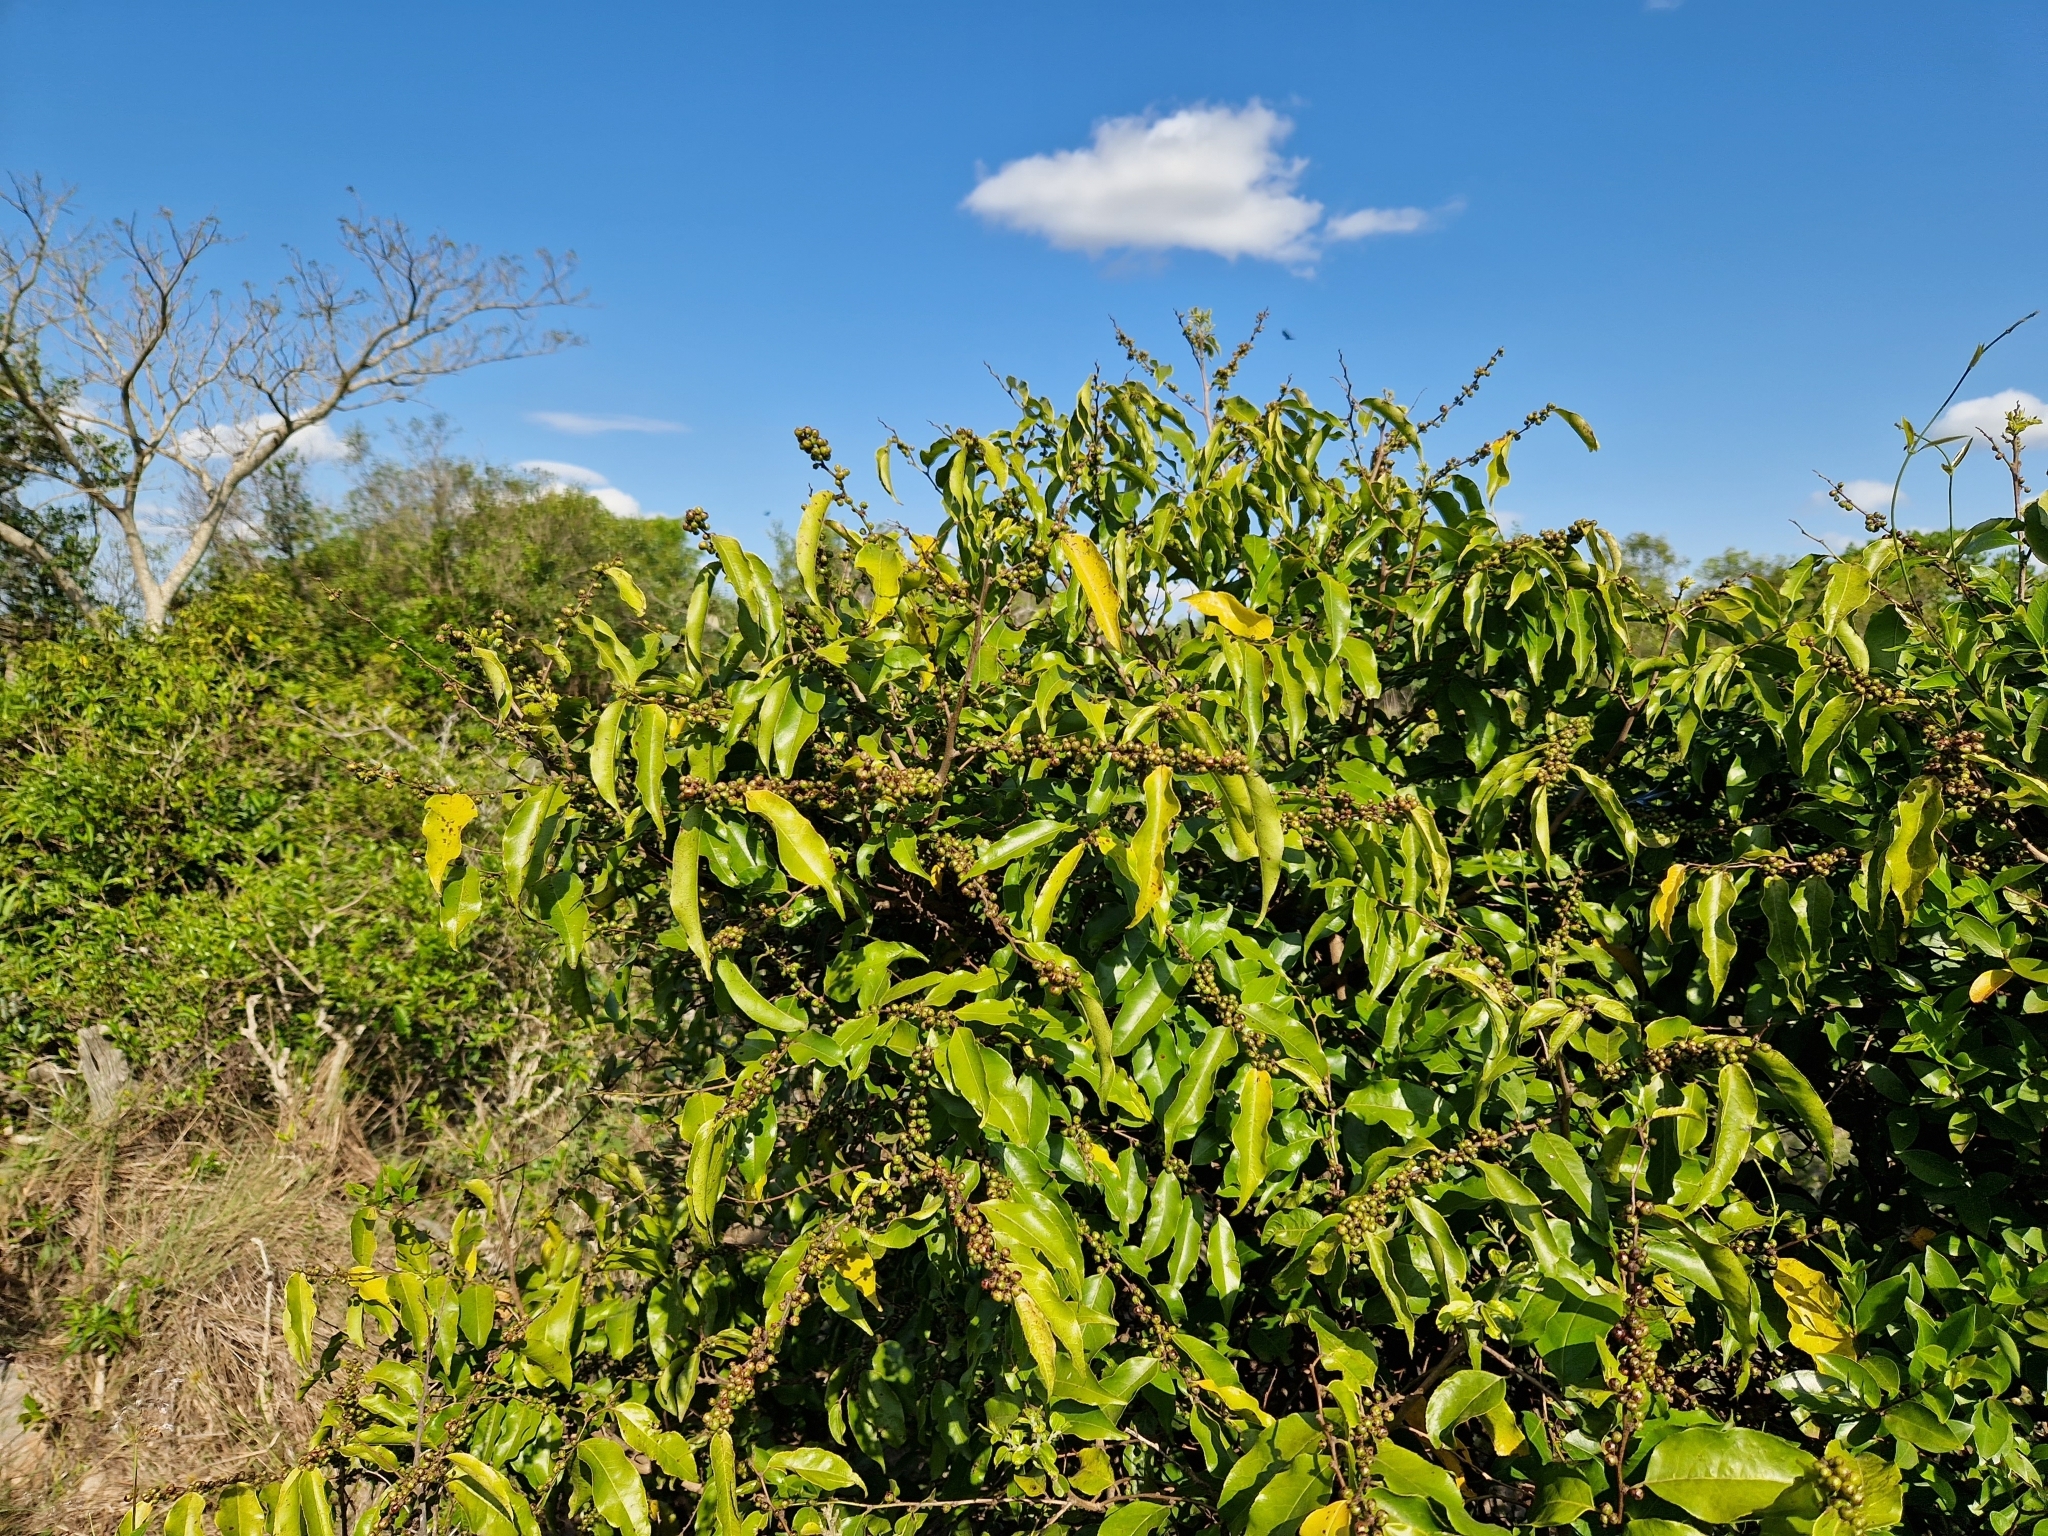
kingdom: Plantae
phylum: Tracheophyta
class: Magnoliopsida
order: Malpighiales
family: Salicaceae
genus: Casearia
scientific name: Casearia sylvestris
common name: Wild sage
